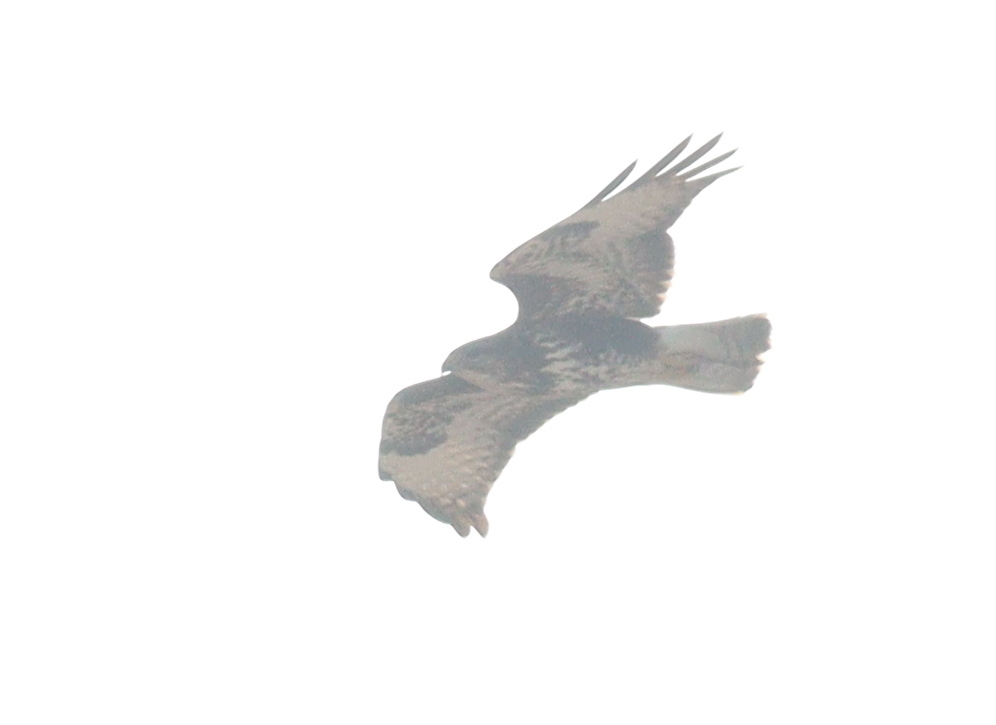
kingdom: Animalia
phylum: Chordata
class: Aves
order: Accipitriformes
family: Accipitridae
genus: Buteo
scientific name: Buteo buteo
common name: Common buzzard
